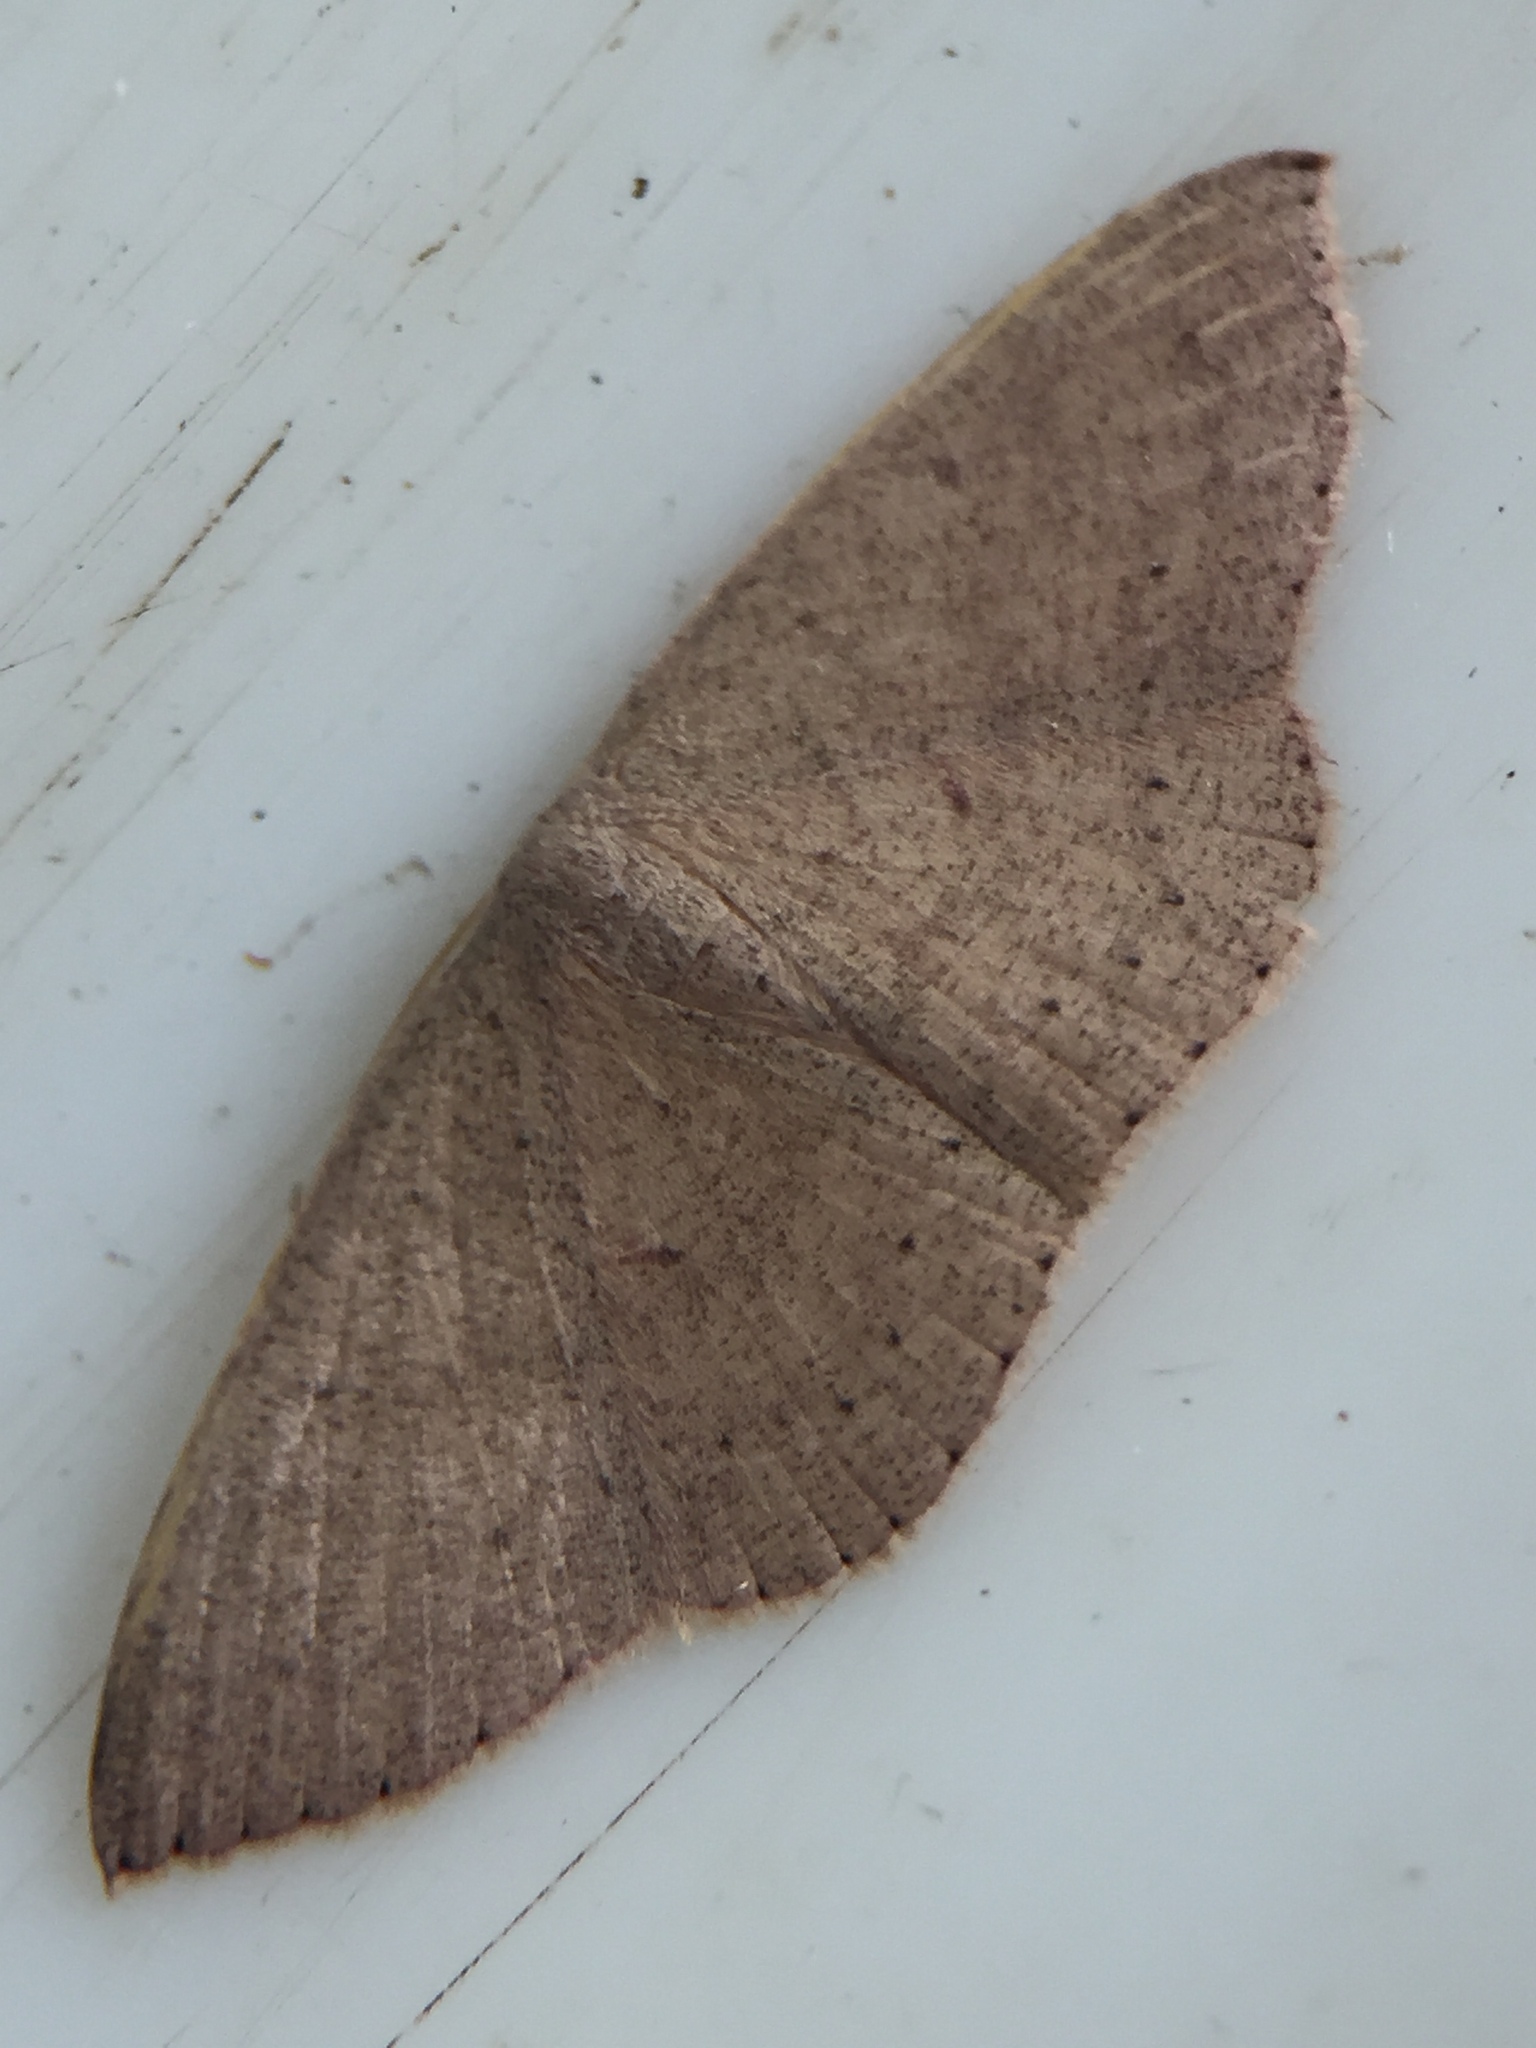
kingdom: Animalia
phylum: Arthropoda
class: Insecta
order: Lepidoptera
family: Geometridae
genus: Cyclophora
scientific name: Cyclophora obstataria
